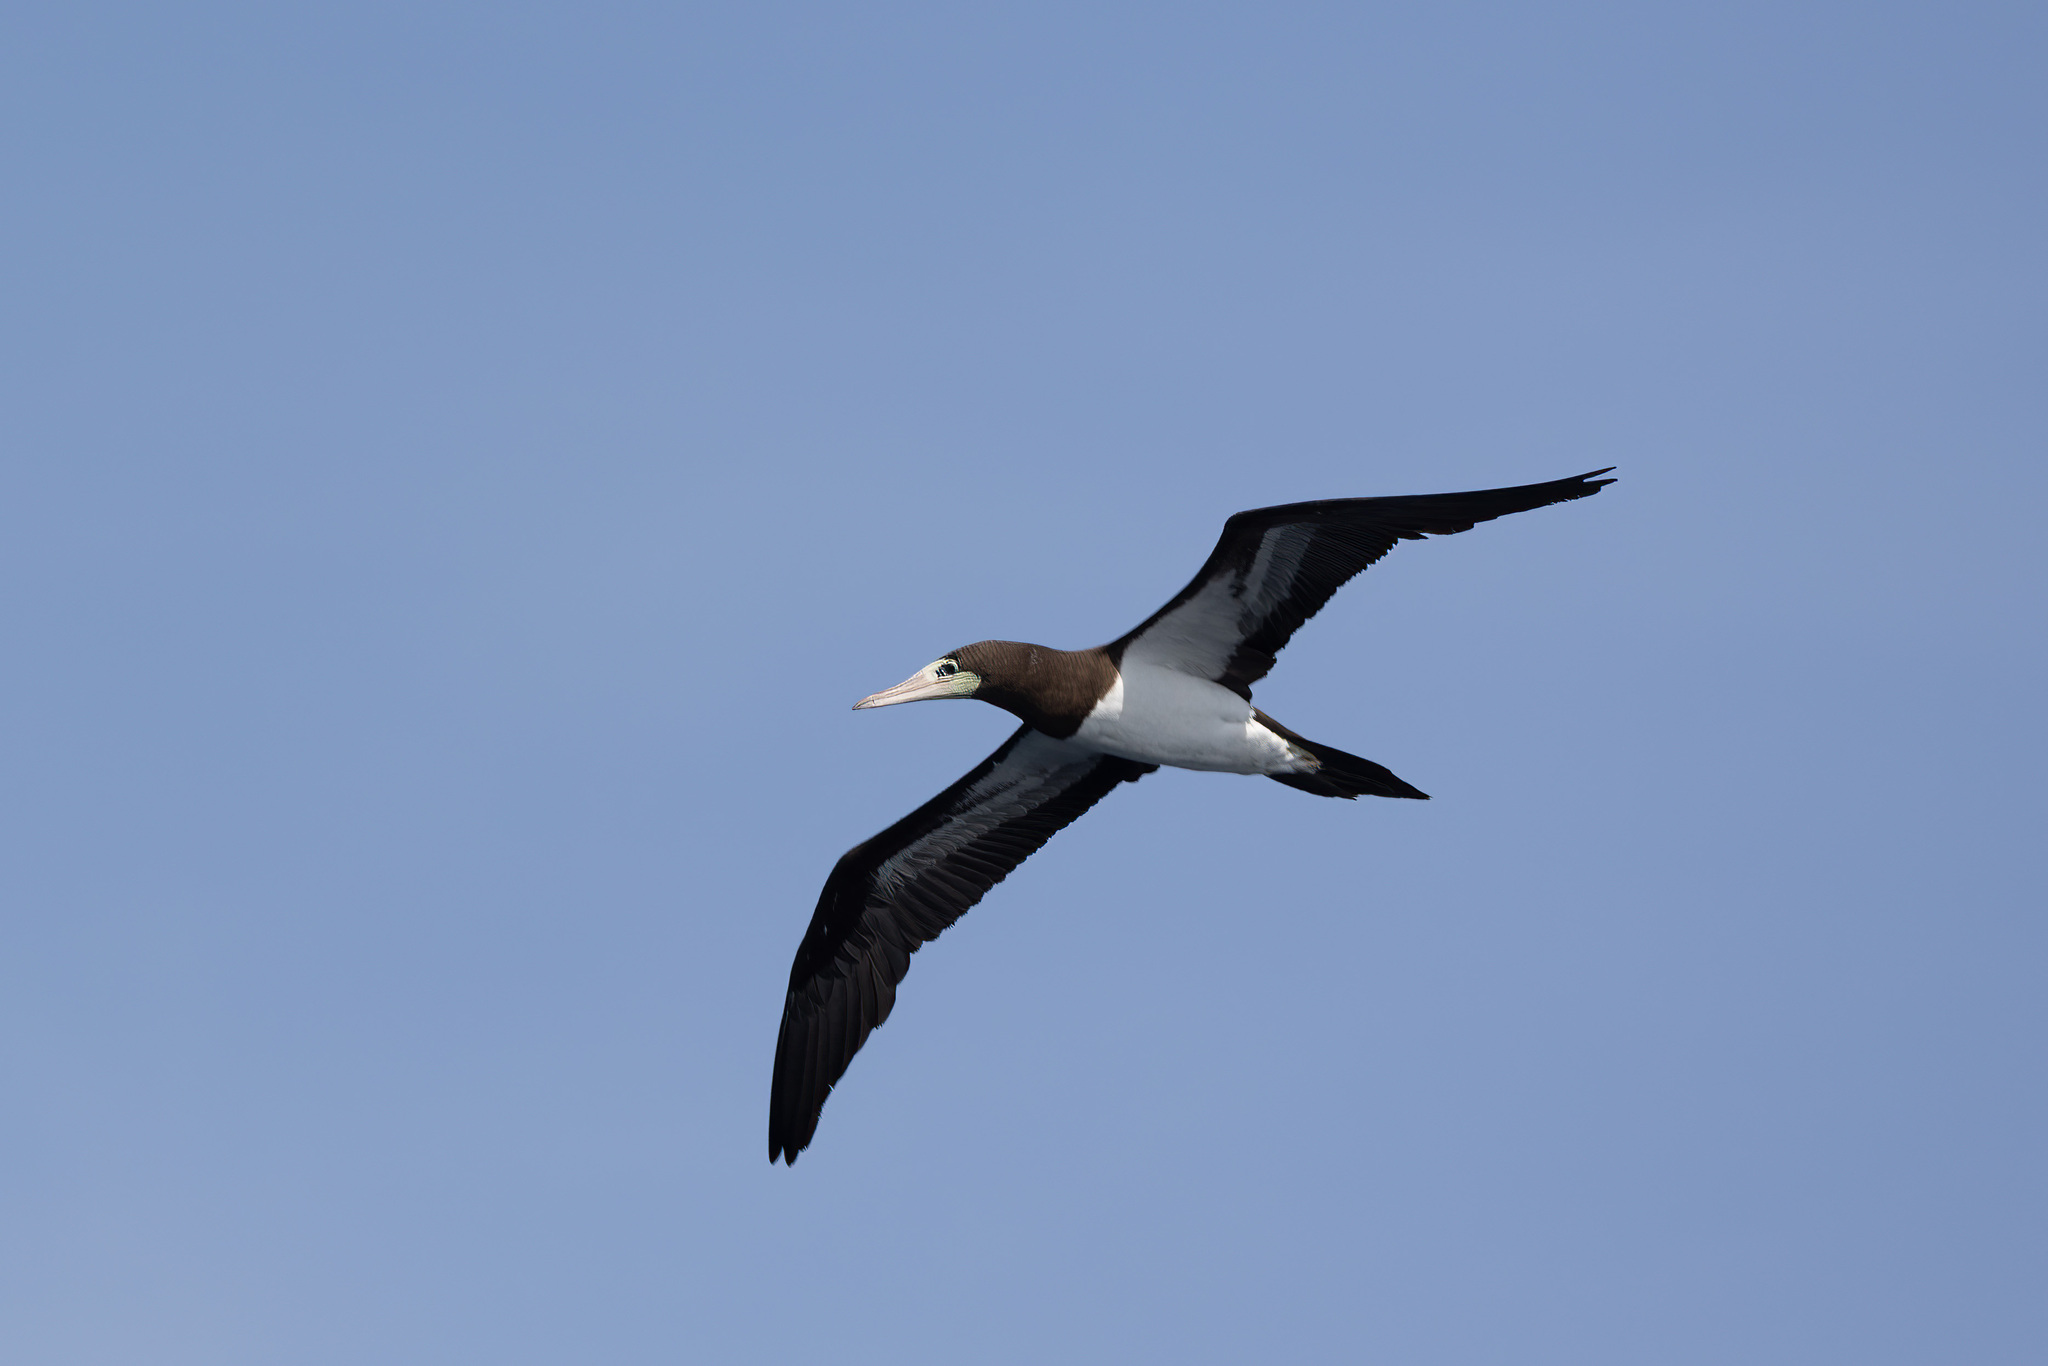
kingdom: Animalia
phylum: Chordata
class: Aves
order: Suliformes
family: Sulidae
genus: Sula
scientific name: Sula leucogaster
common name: Brown booby
